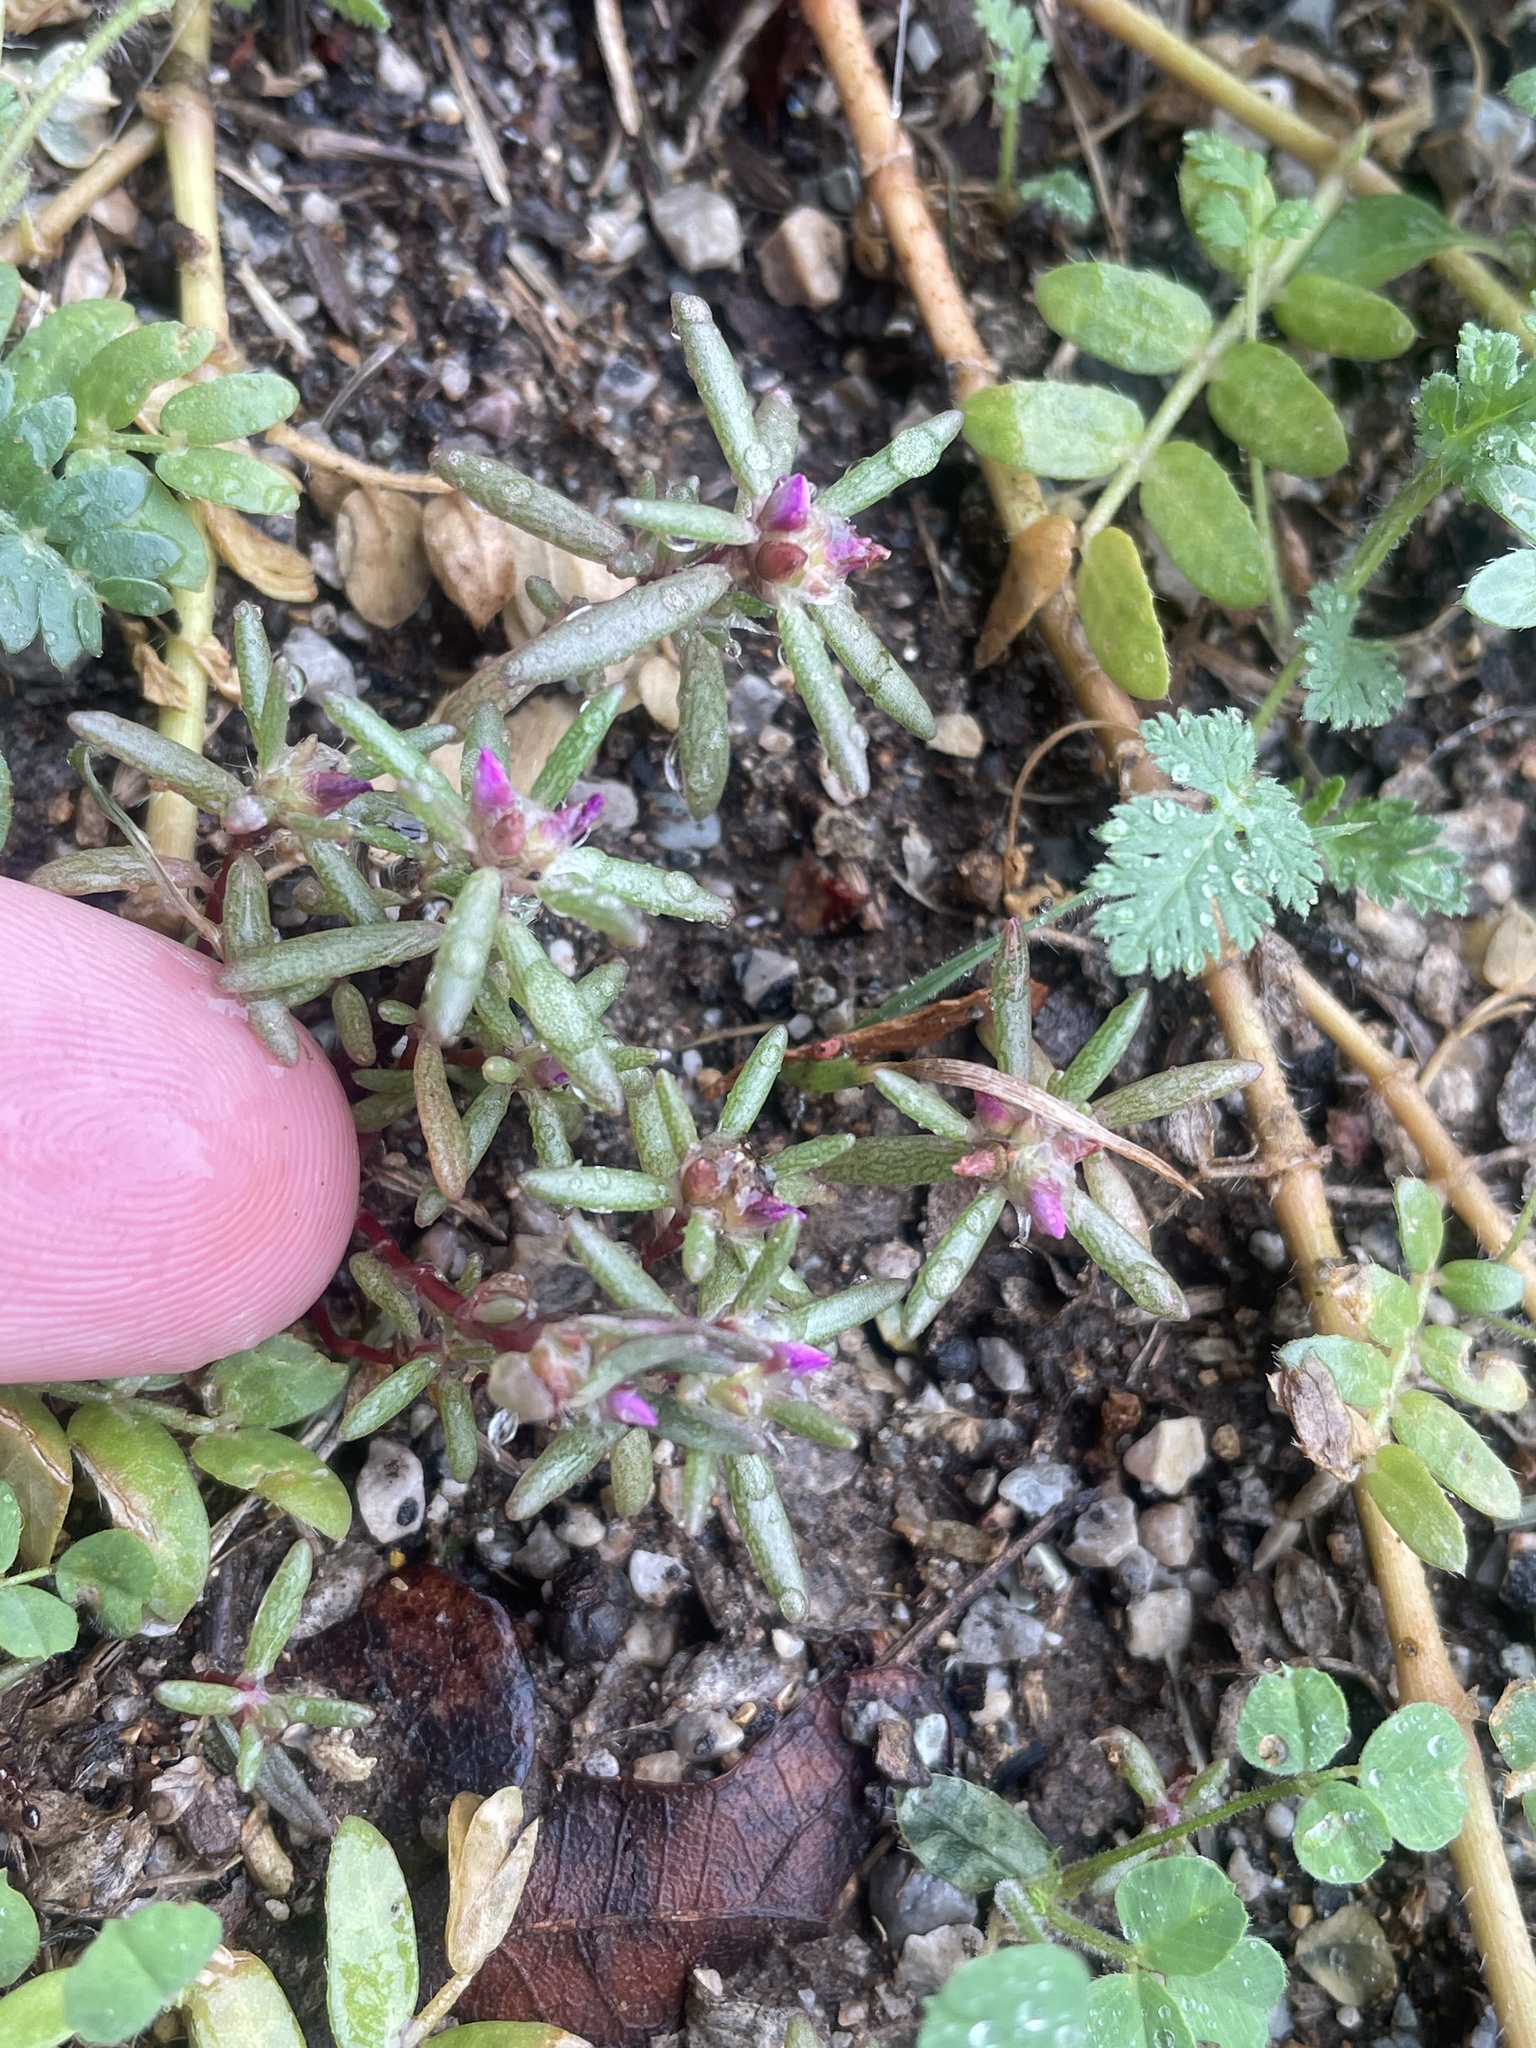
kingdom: Plantae
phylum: Tracheophyta
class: Magnoliopsida
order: Caryophyllales
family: Portulacaceae
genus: Portulaca
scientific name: Portulaca pilosa
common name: Kiss me quick
